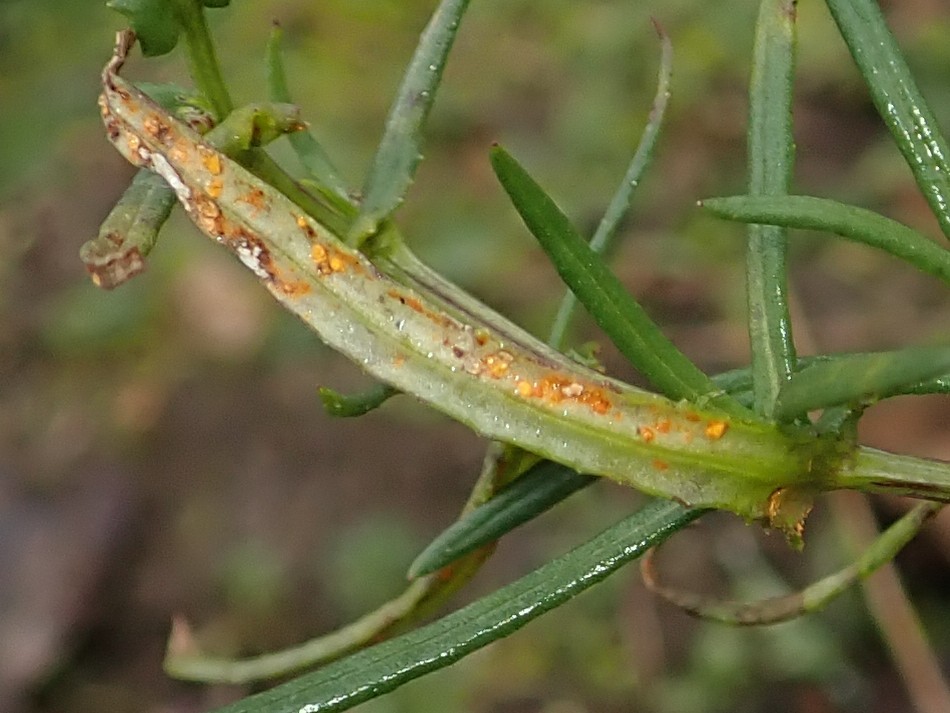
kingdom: Fungi
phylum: Basidiomycota
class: Pucciniomycetes
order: Pucciniales
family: Coleosporiaceae
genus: Coleosporium
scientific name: Coleosporium senecionis
